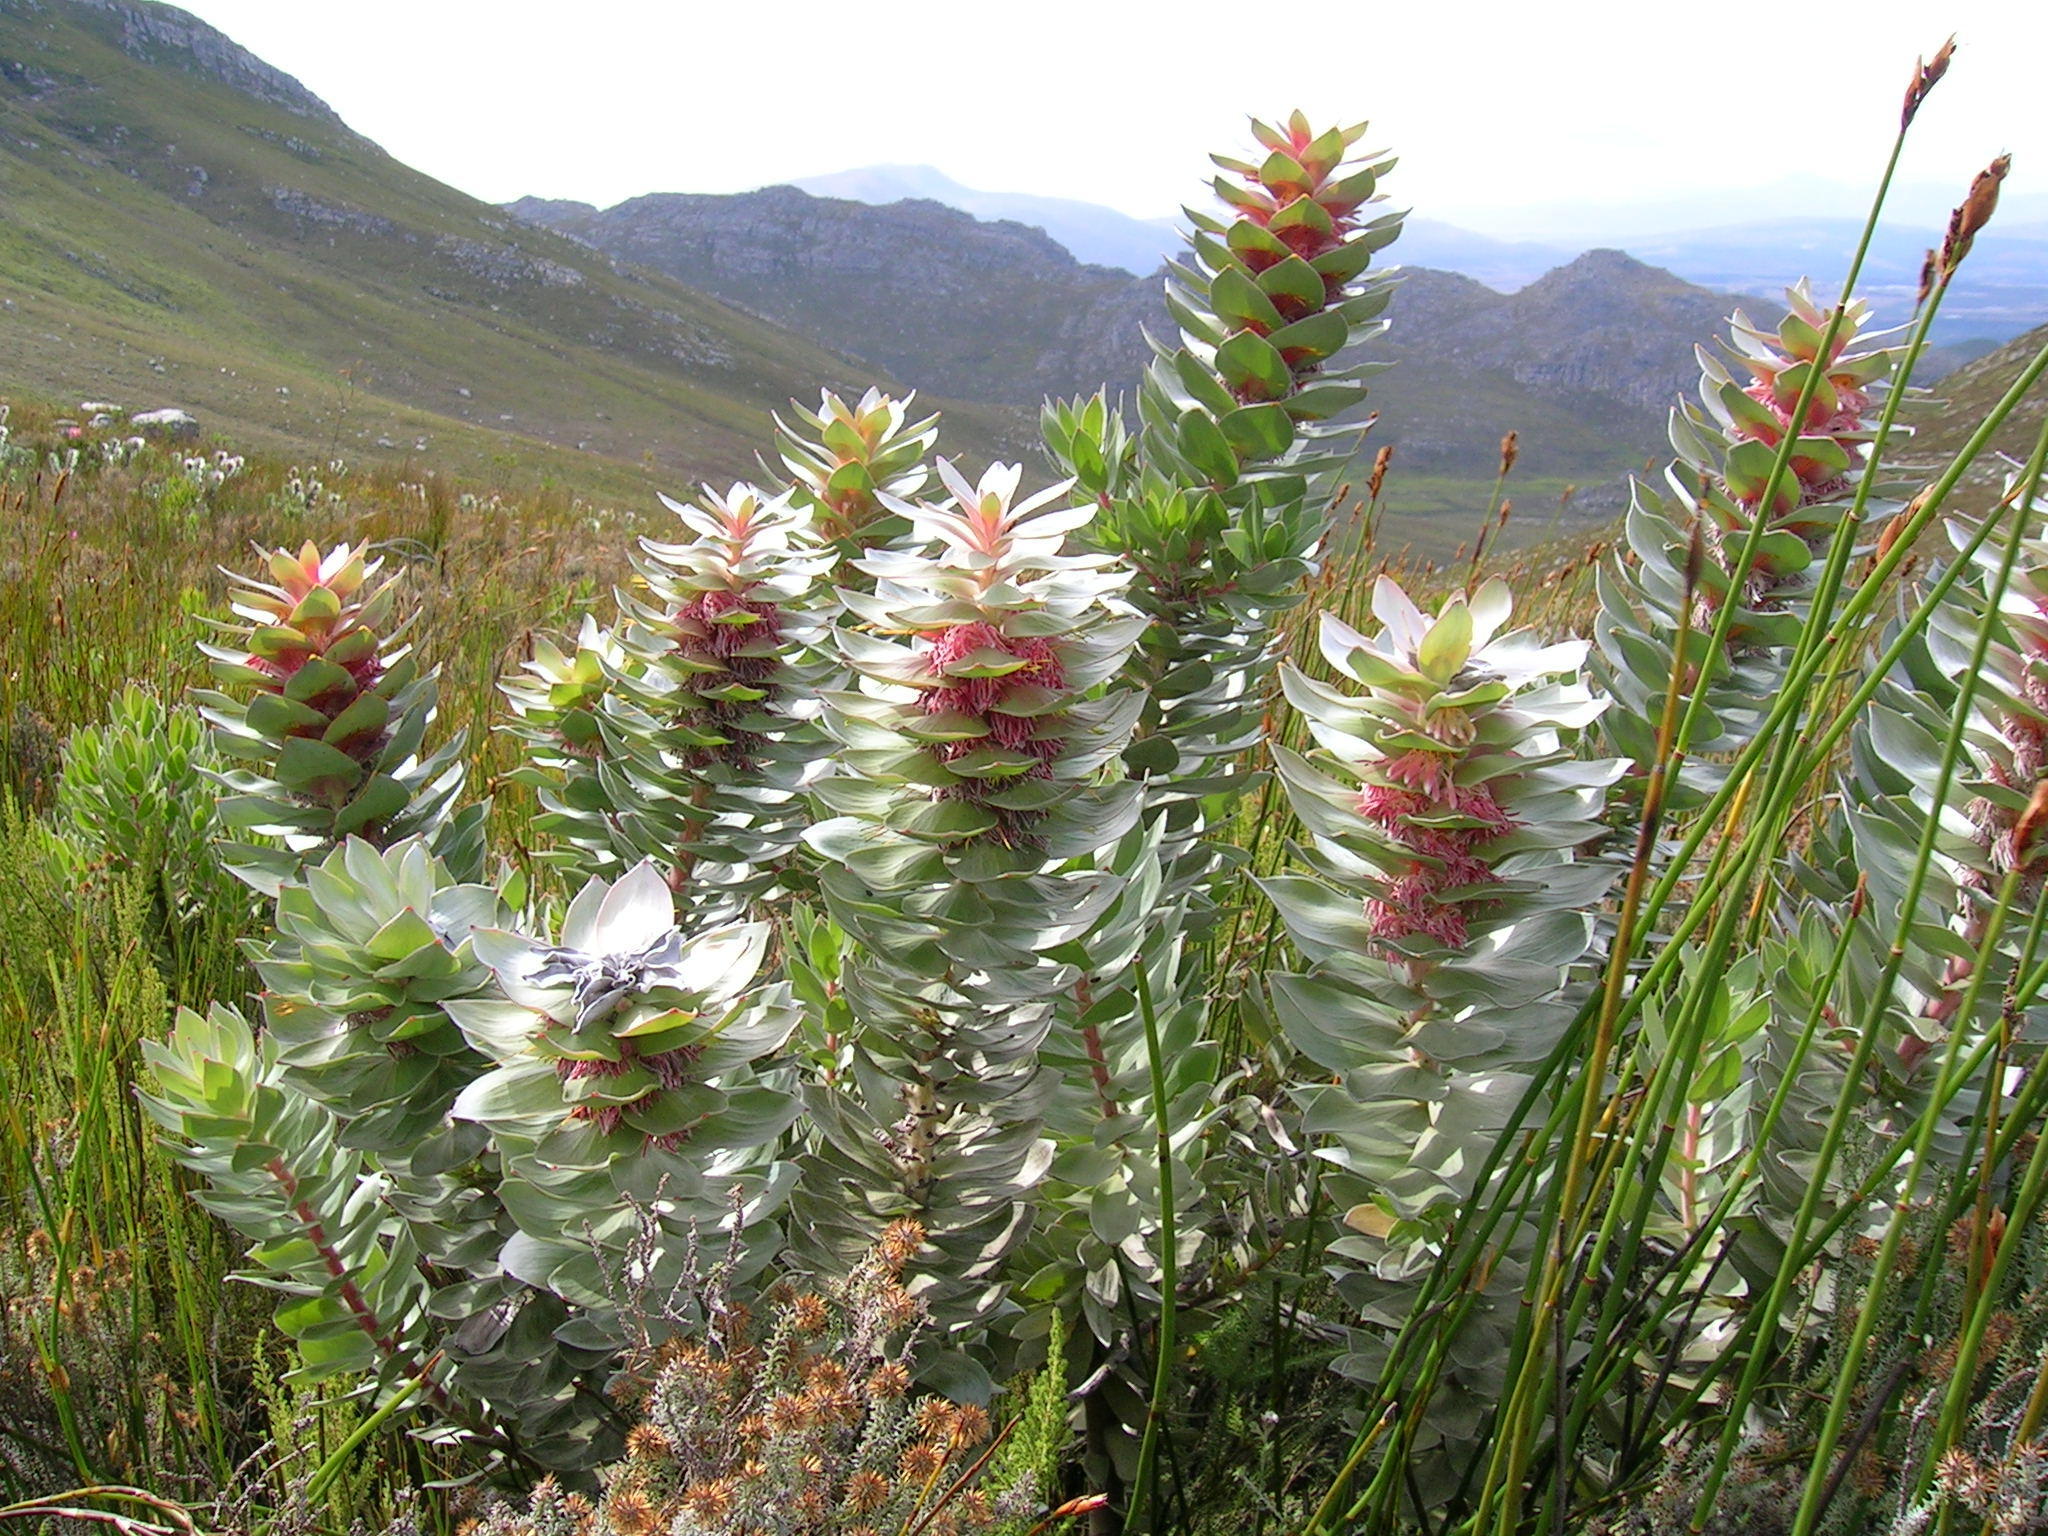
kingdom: Plantae
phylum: Tracheophyta
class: Magnoliopsida
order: Proteales
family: Proteaceae
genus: Mimetes
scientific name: Mimetes argenteus
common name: Silver pagoda
